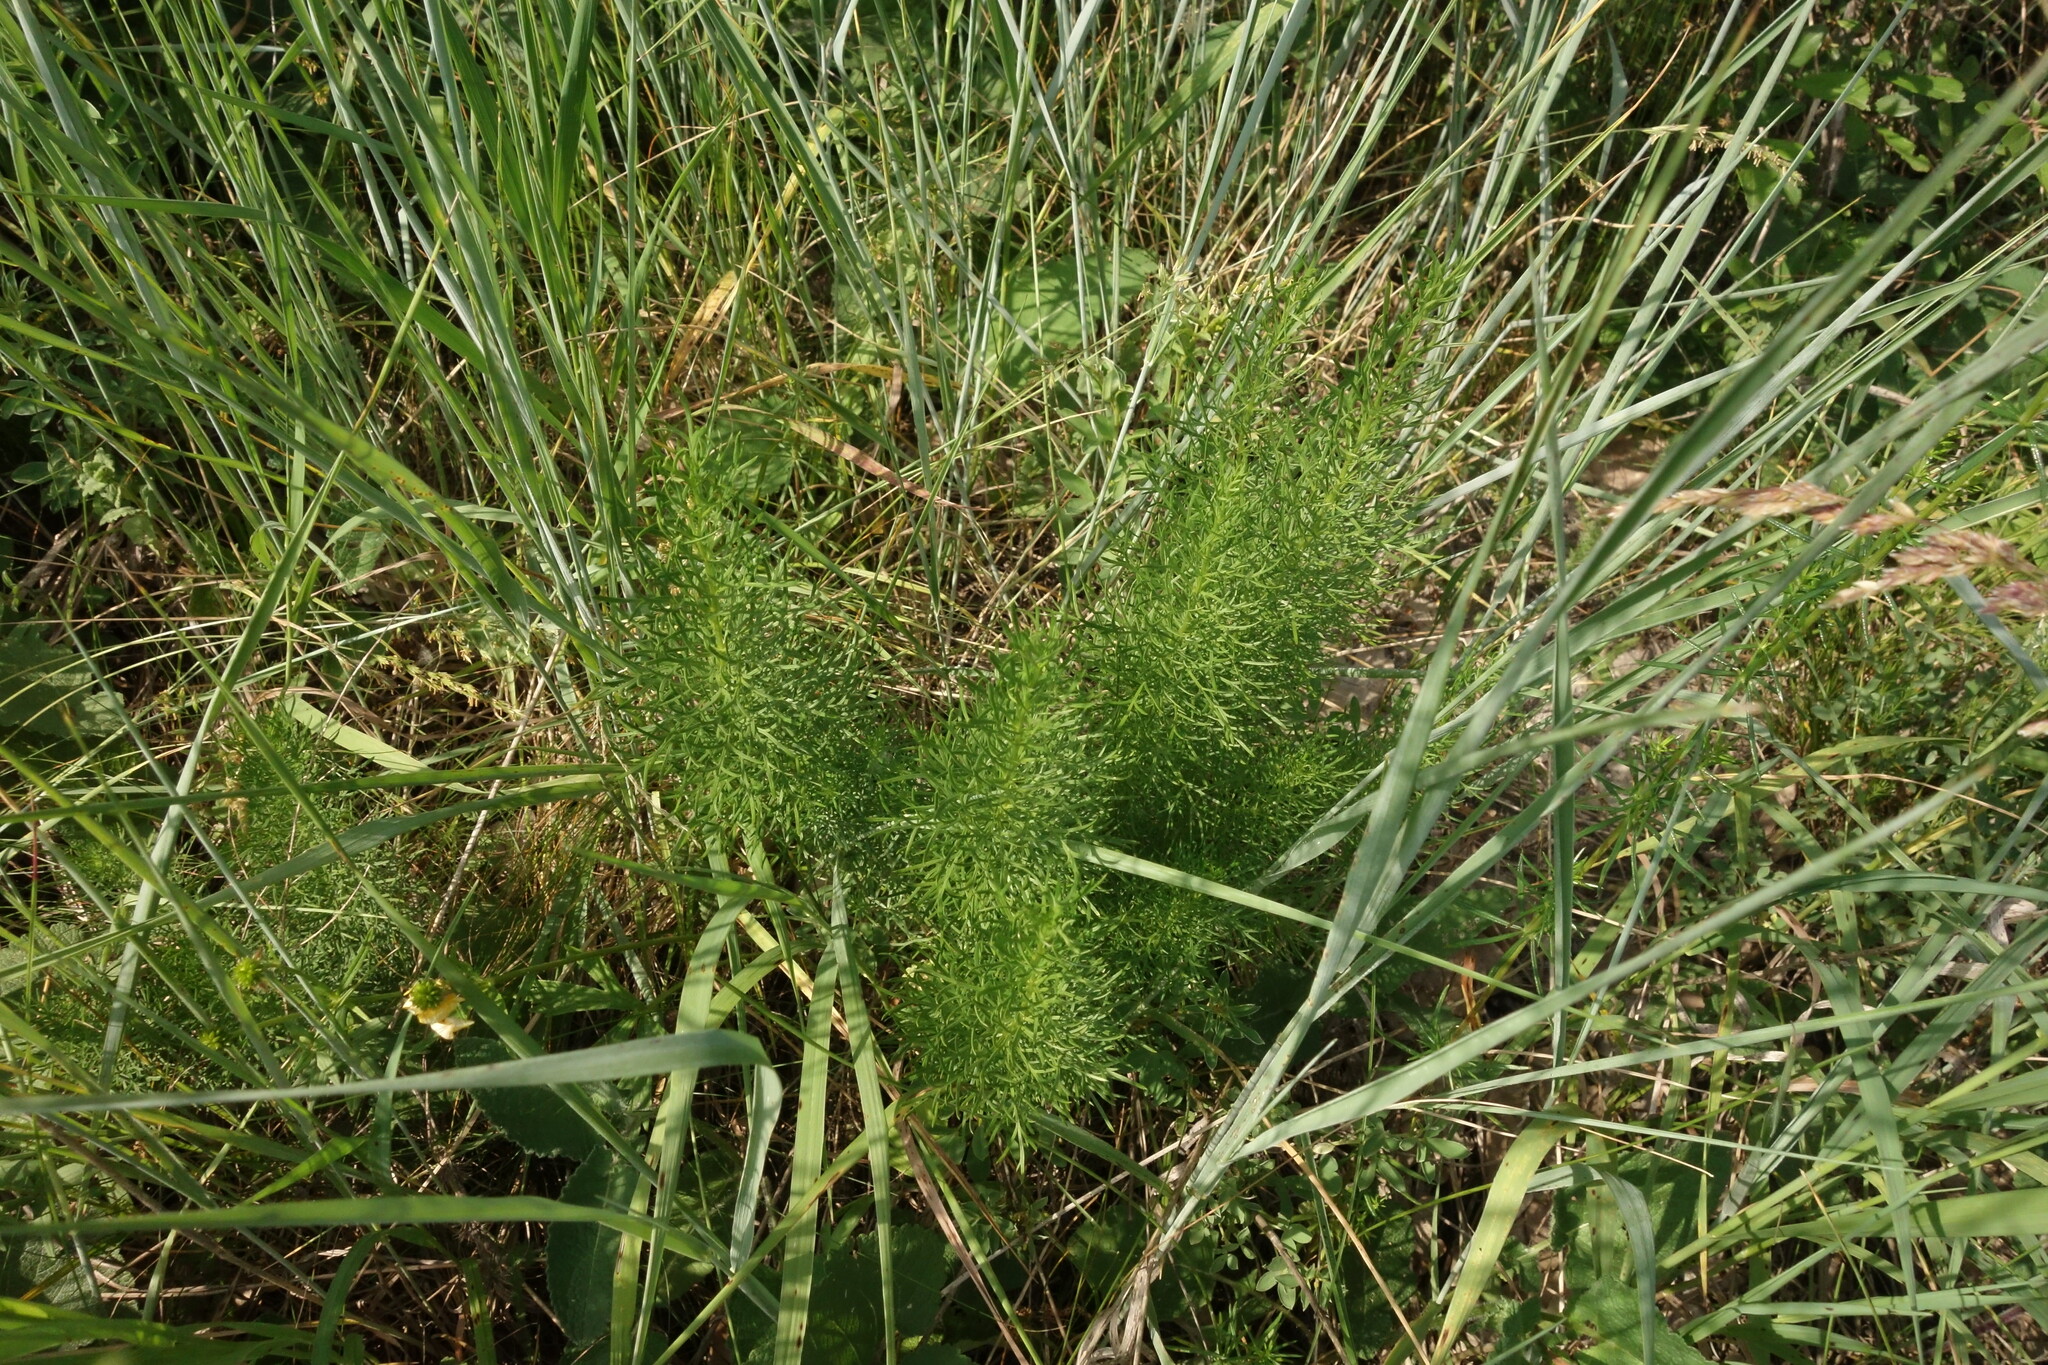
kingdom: Plantae
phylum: Tracheophyta
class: Magnoliopsida
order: Ranunculales
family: Ranunculaceae
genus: Adonis
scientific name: Adonis vernalis
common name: Yellow pheasants-eye
